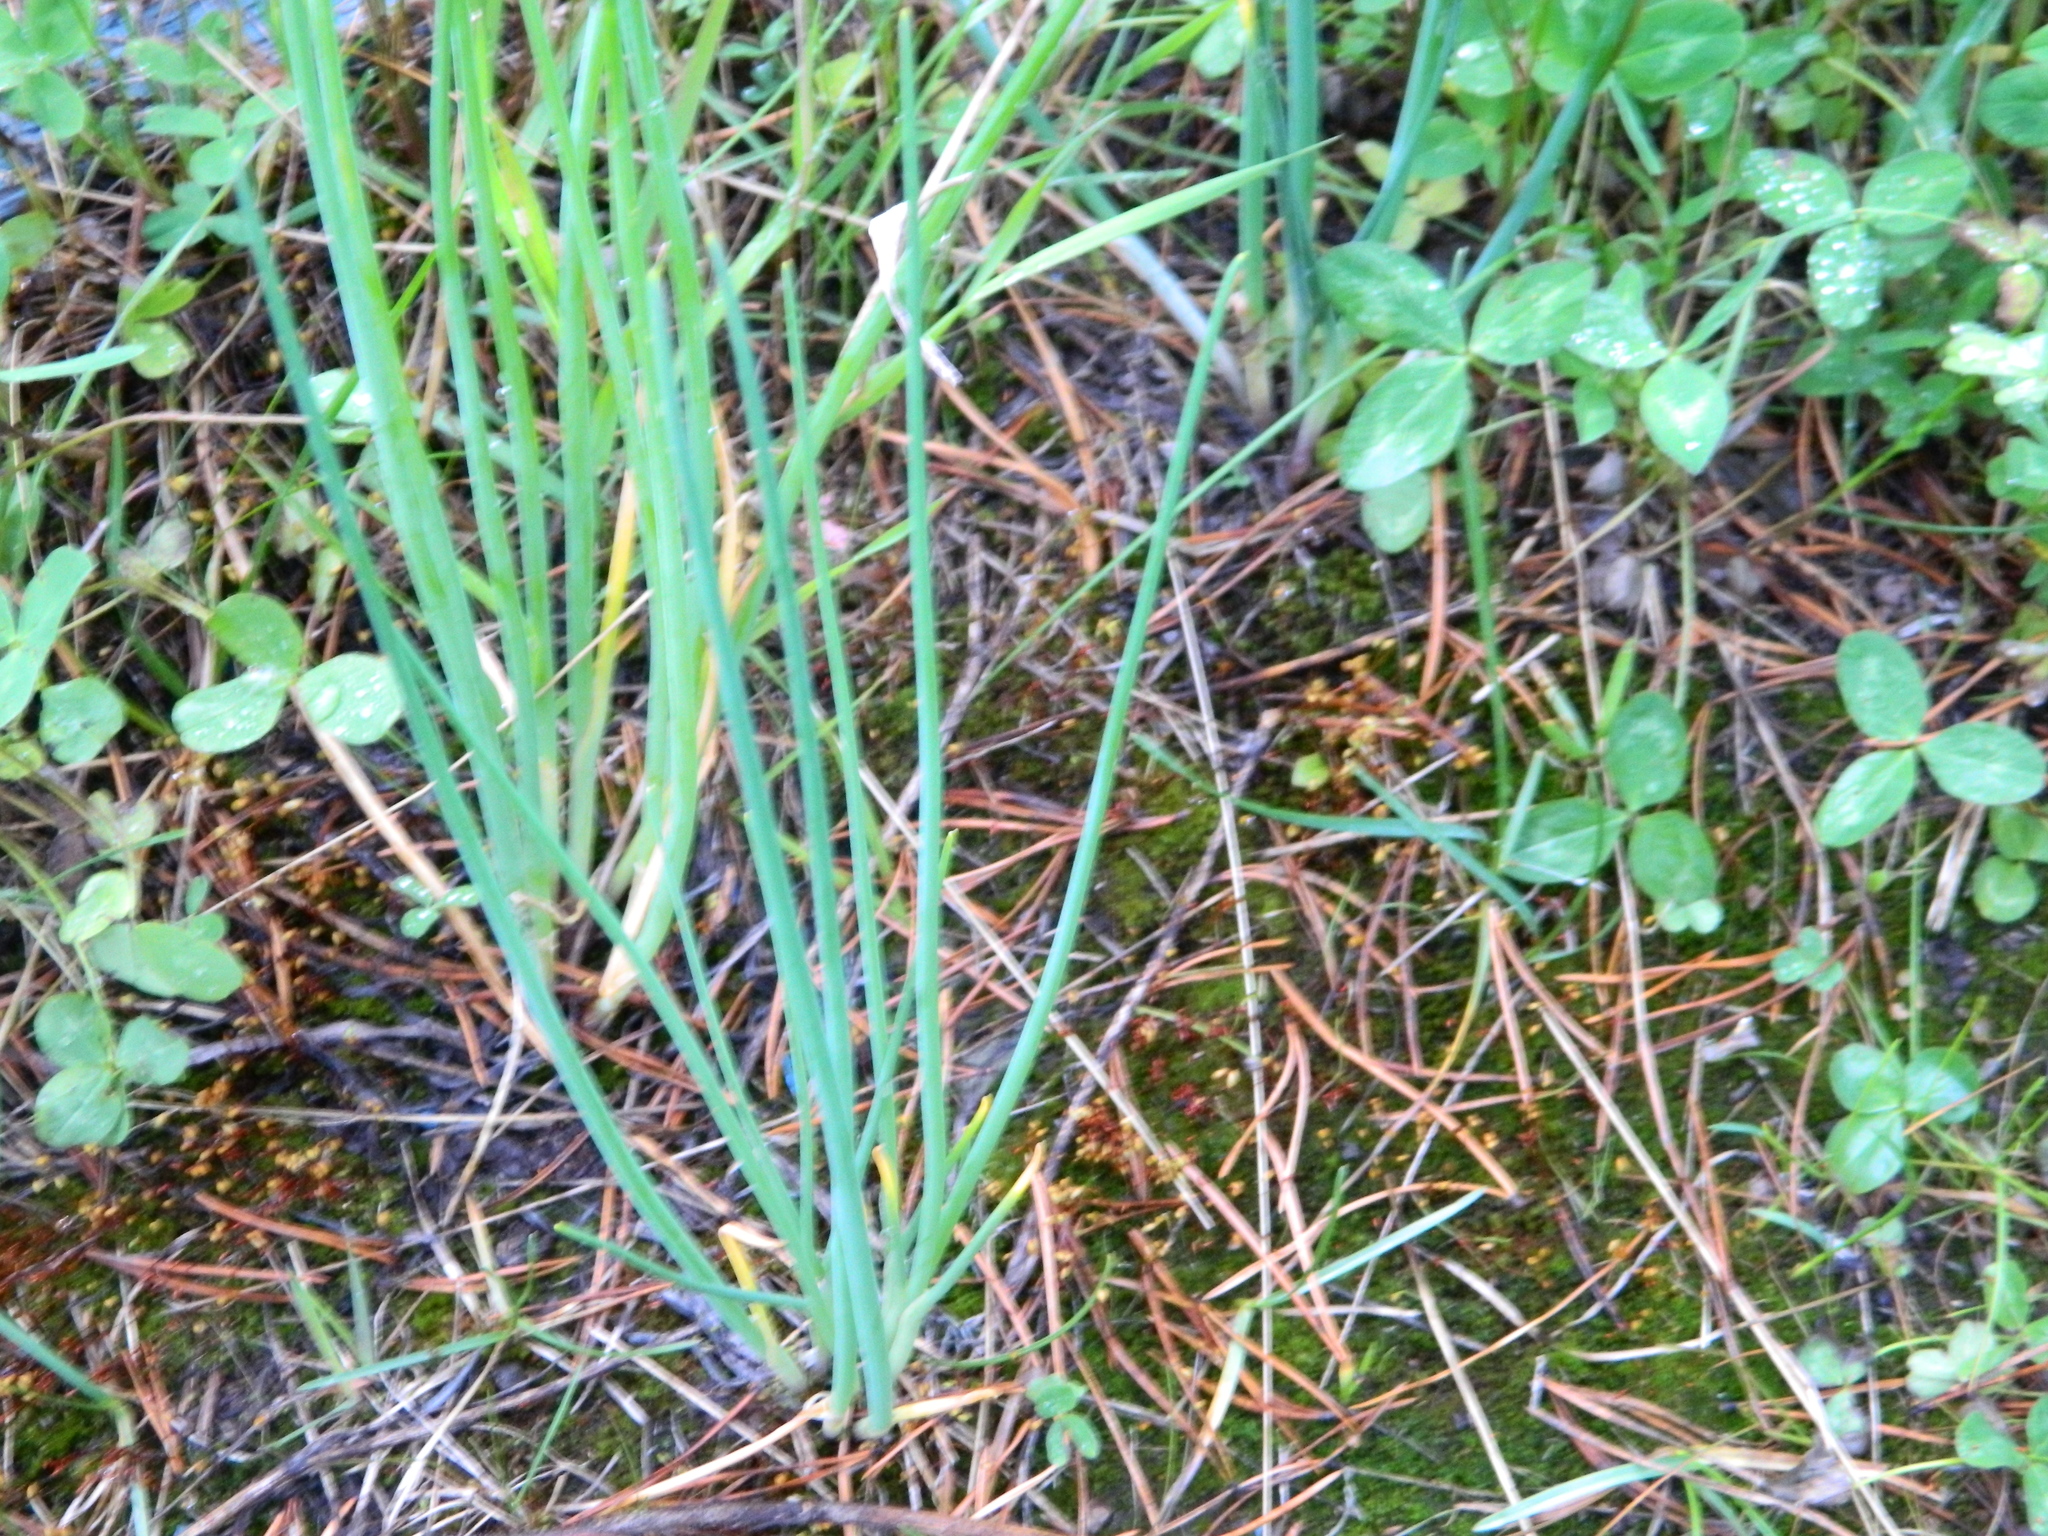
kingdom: Plantae
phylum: Tracheophyta
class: Liliopsida
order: Asparagales
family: Amaryllidaceae
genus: Allium
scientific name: Allium schoenoprasum
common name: Chives
